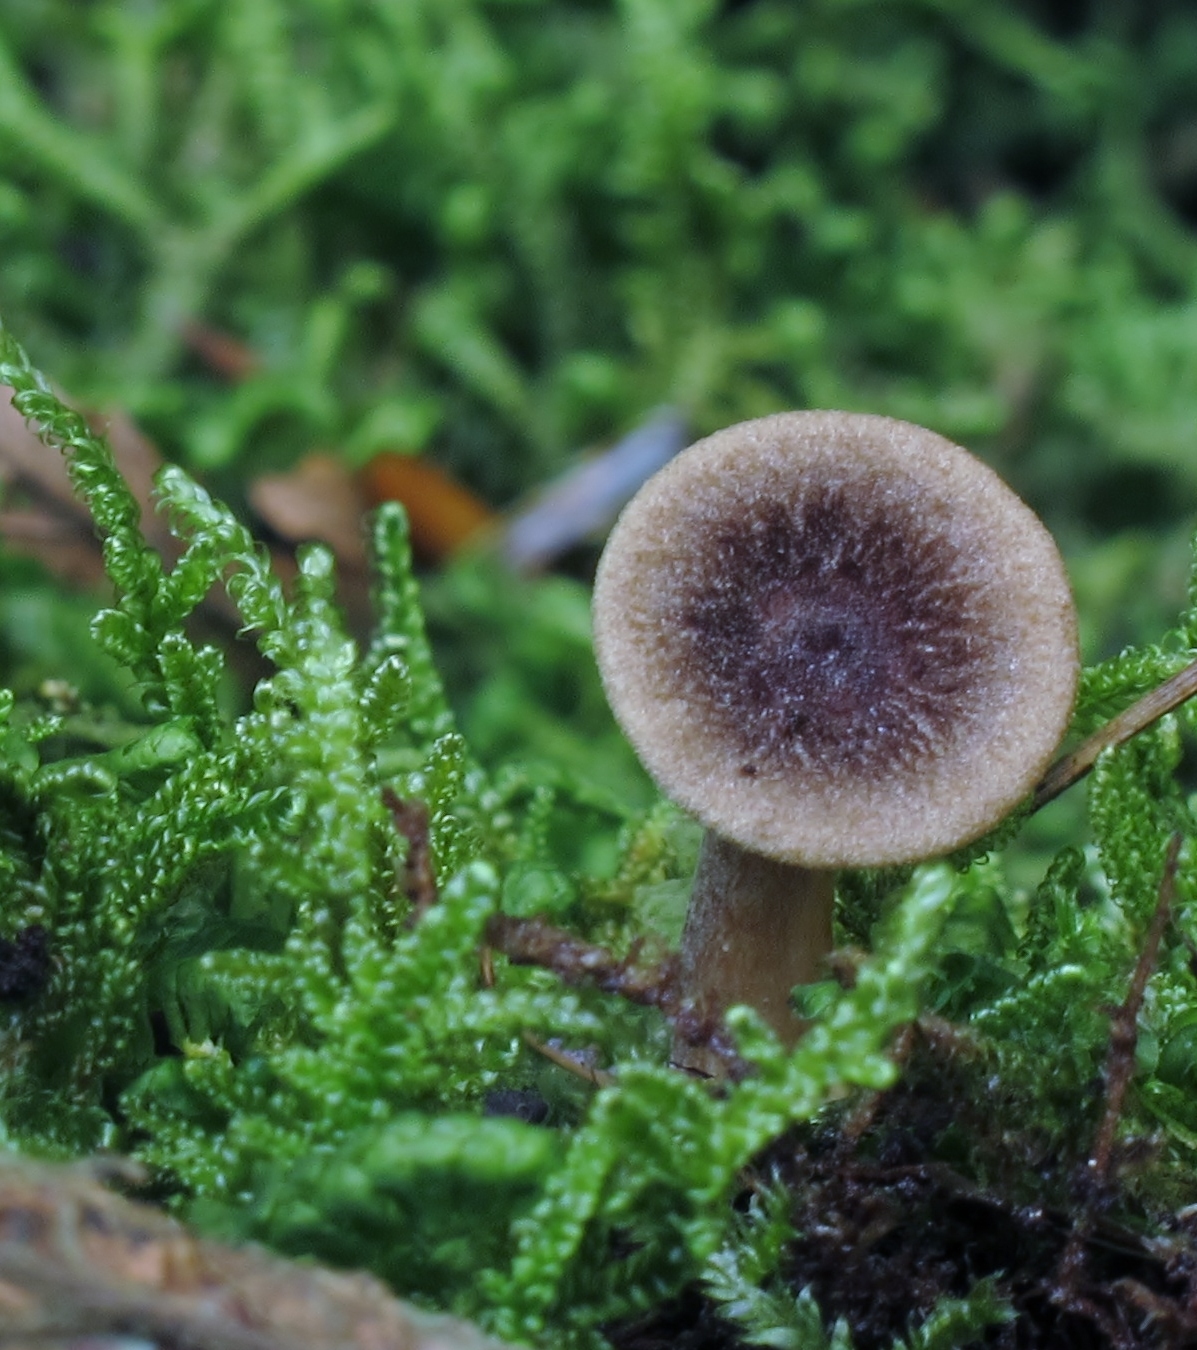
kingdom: Fungi
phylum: Basidiomycota
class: Agaricomycetes
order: Russulales
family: Russulaceae
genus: Lactarius
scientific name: Lactarius griseus
